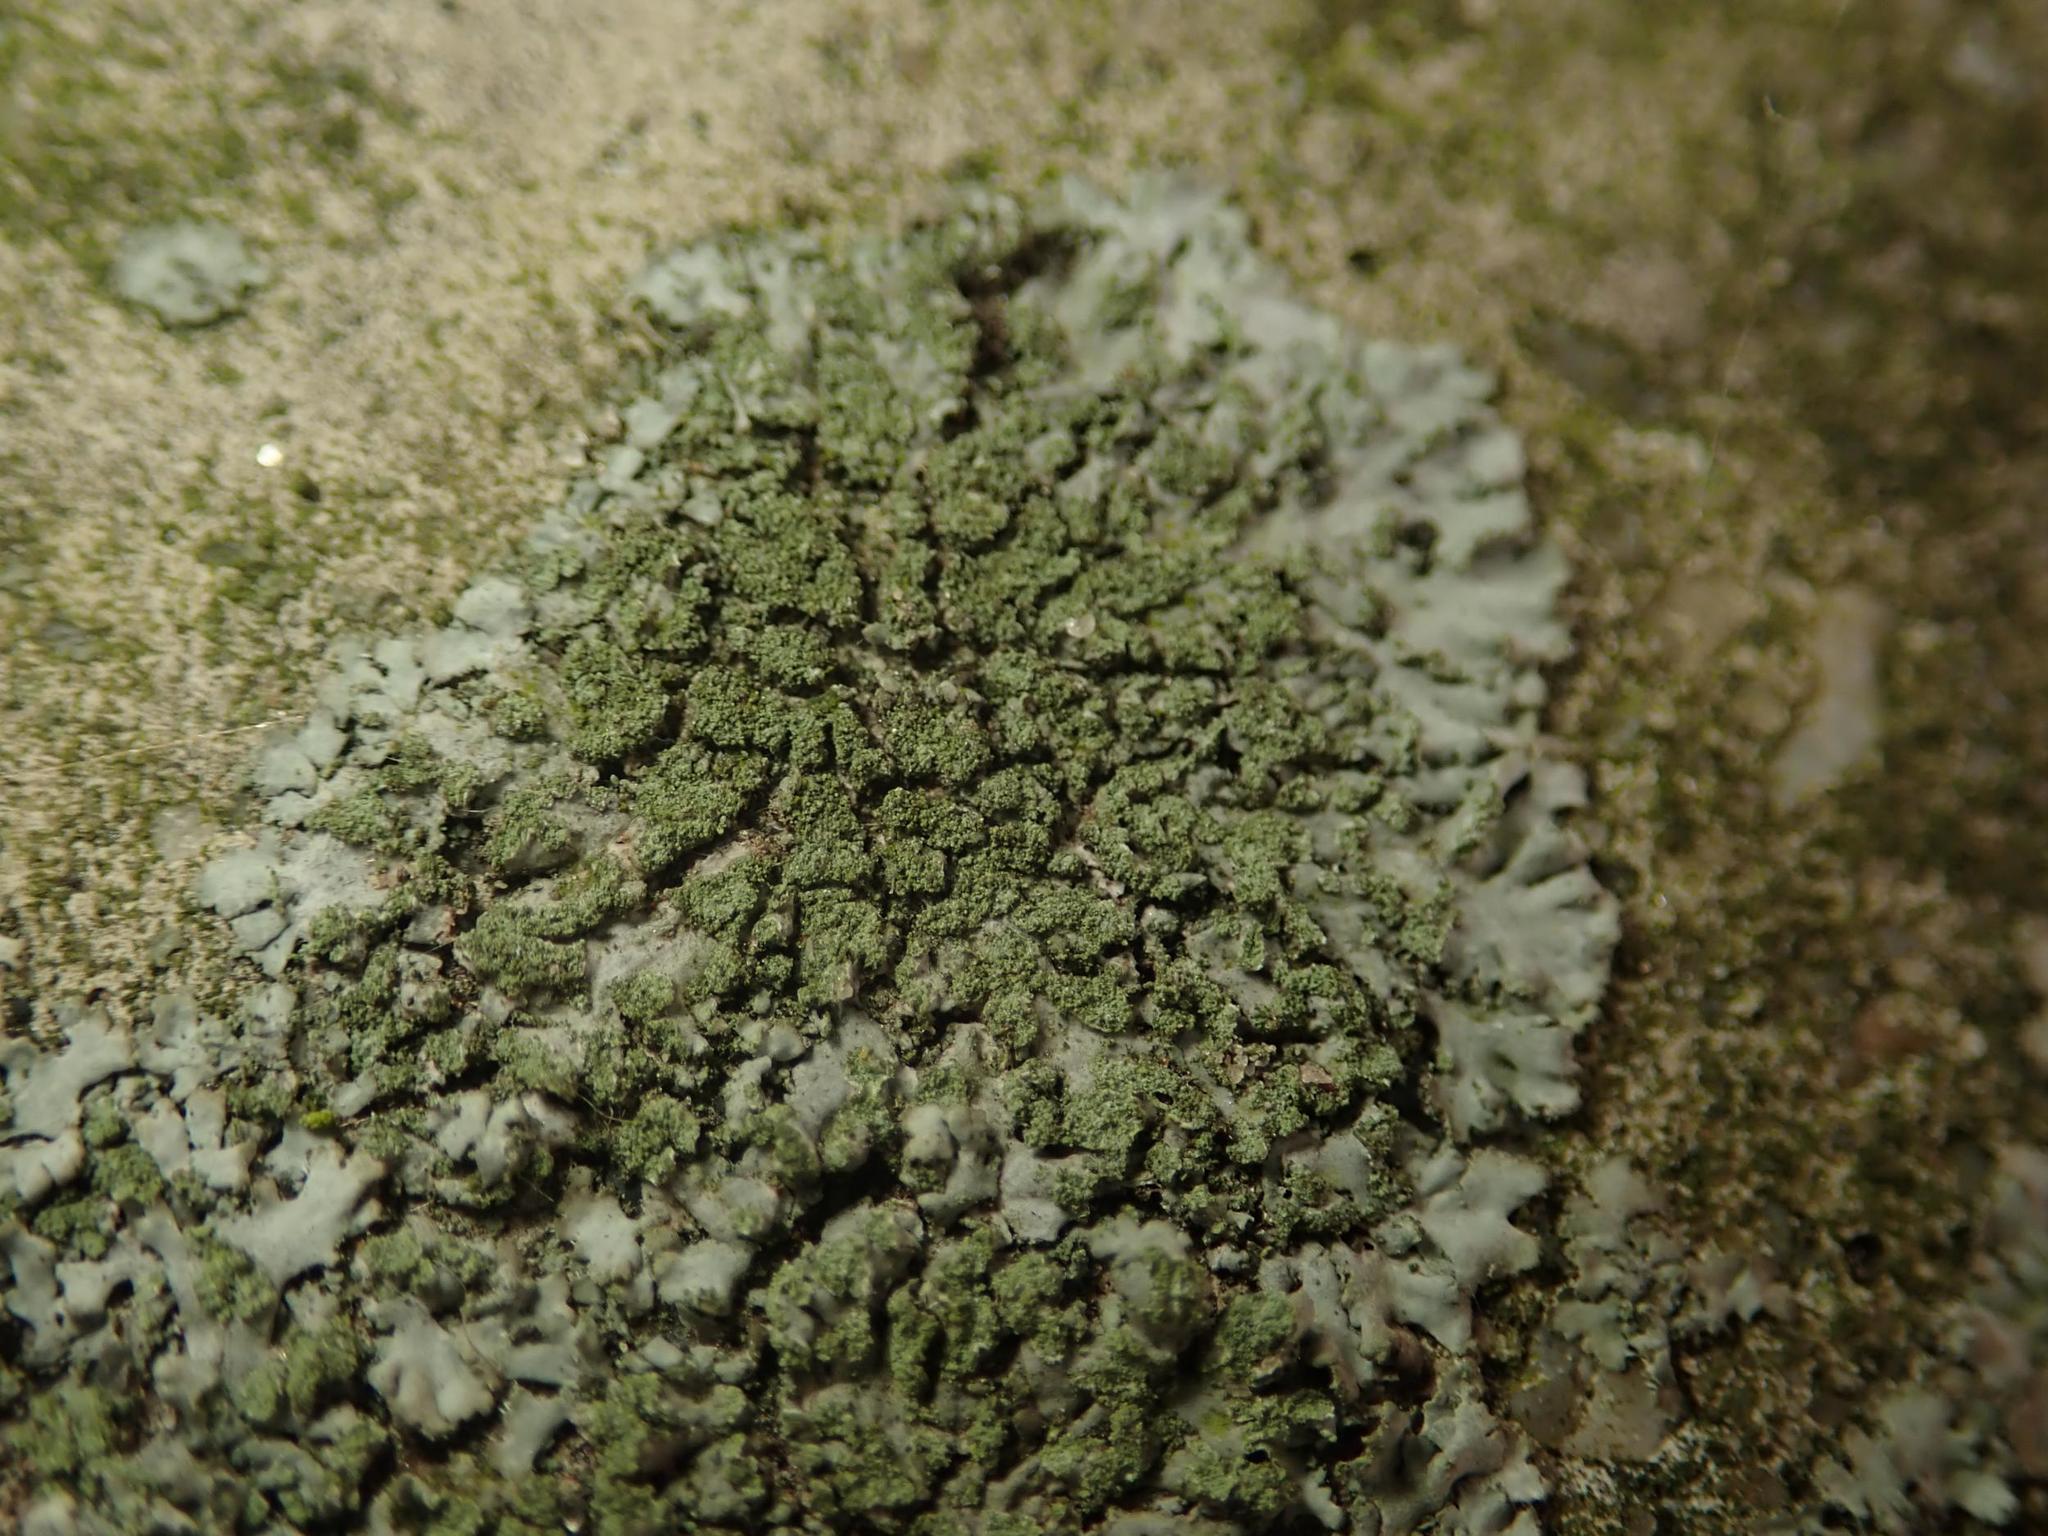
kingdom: Fungi
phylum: Ascomycota
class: Lecanoromycetes
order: Caliciales
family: Physciaceae
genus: Phaeophyscia
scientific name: Phaeophyscia orbicularis
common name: Mealy shadow lichen
